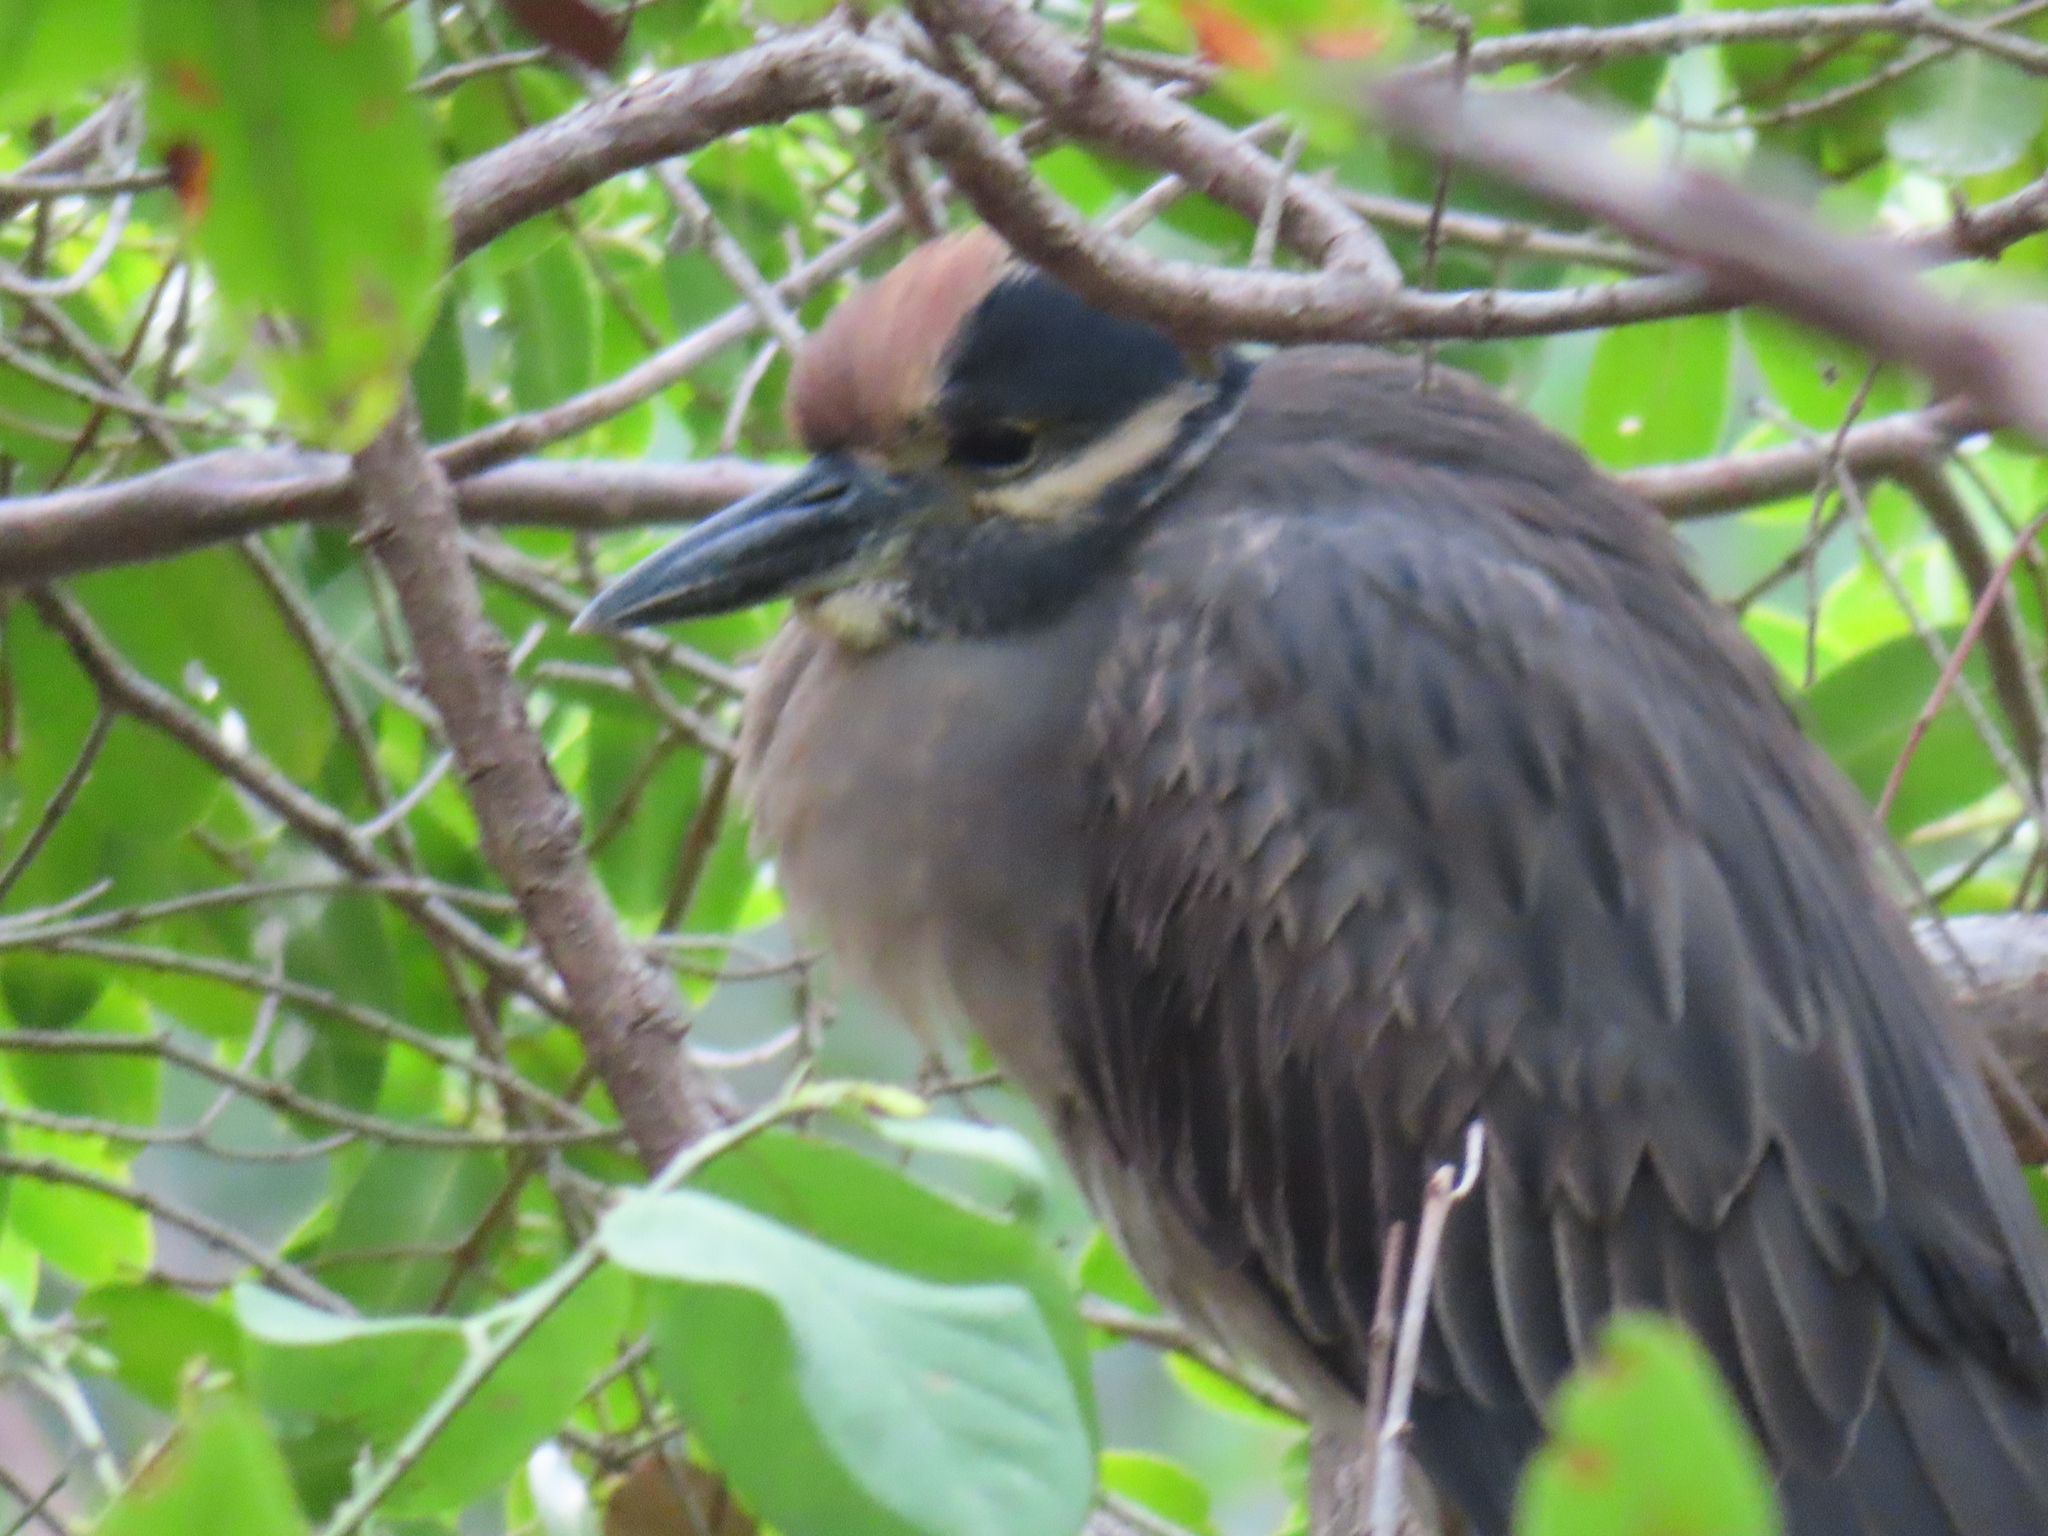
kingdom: Animalia
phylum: Chordata
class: Aves
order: Pelecaniformes
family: Ardeidae
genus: Nyctanassa
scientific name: Nyctanassa violacea
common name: Yellow-crowned night heron
